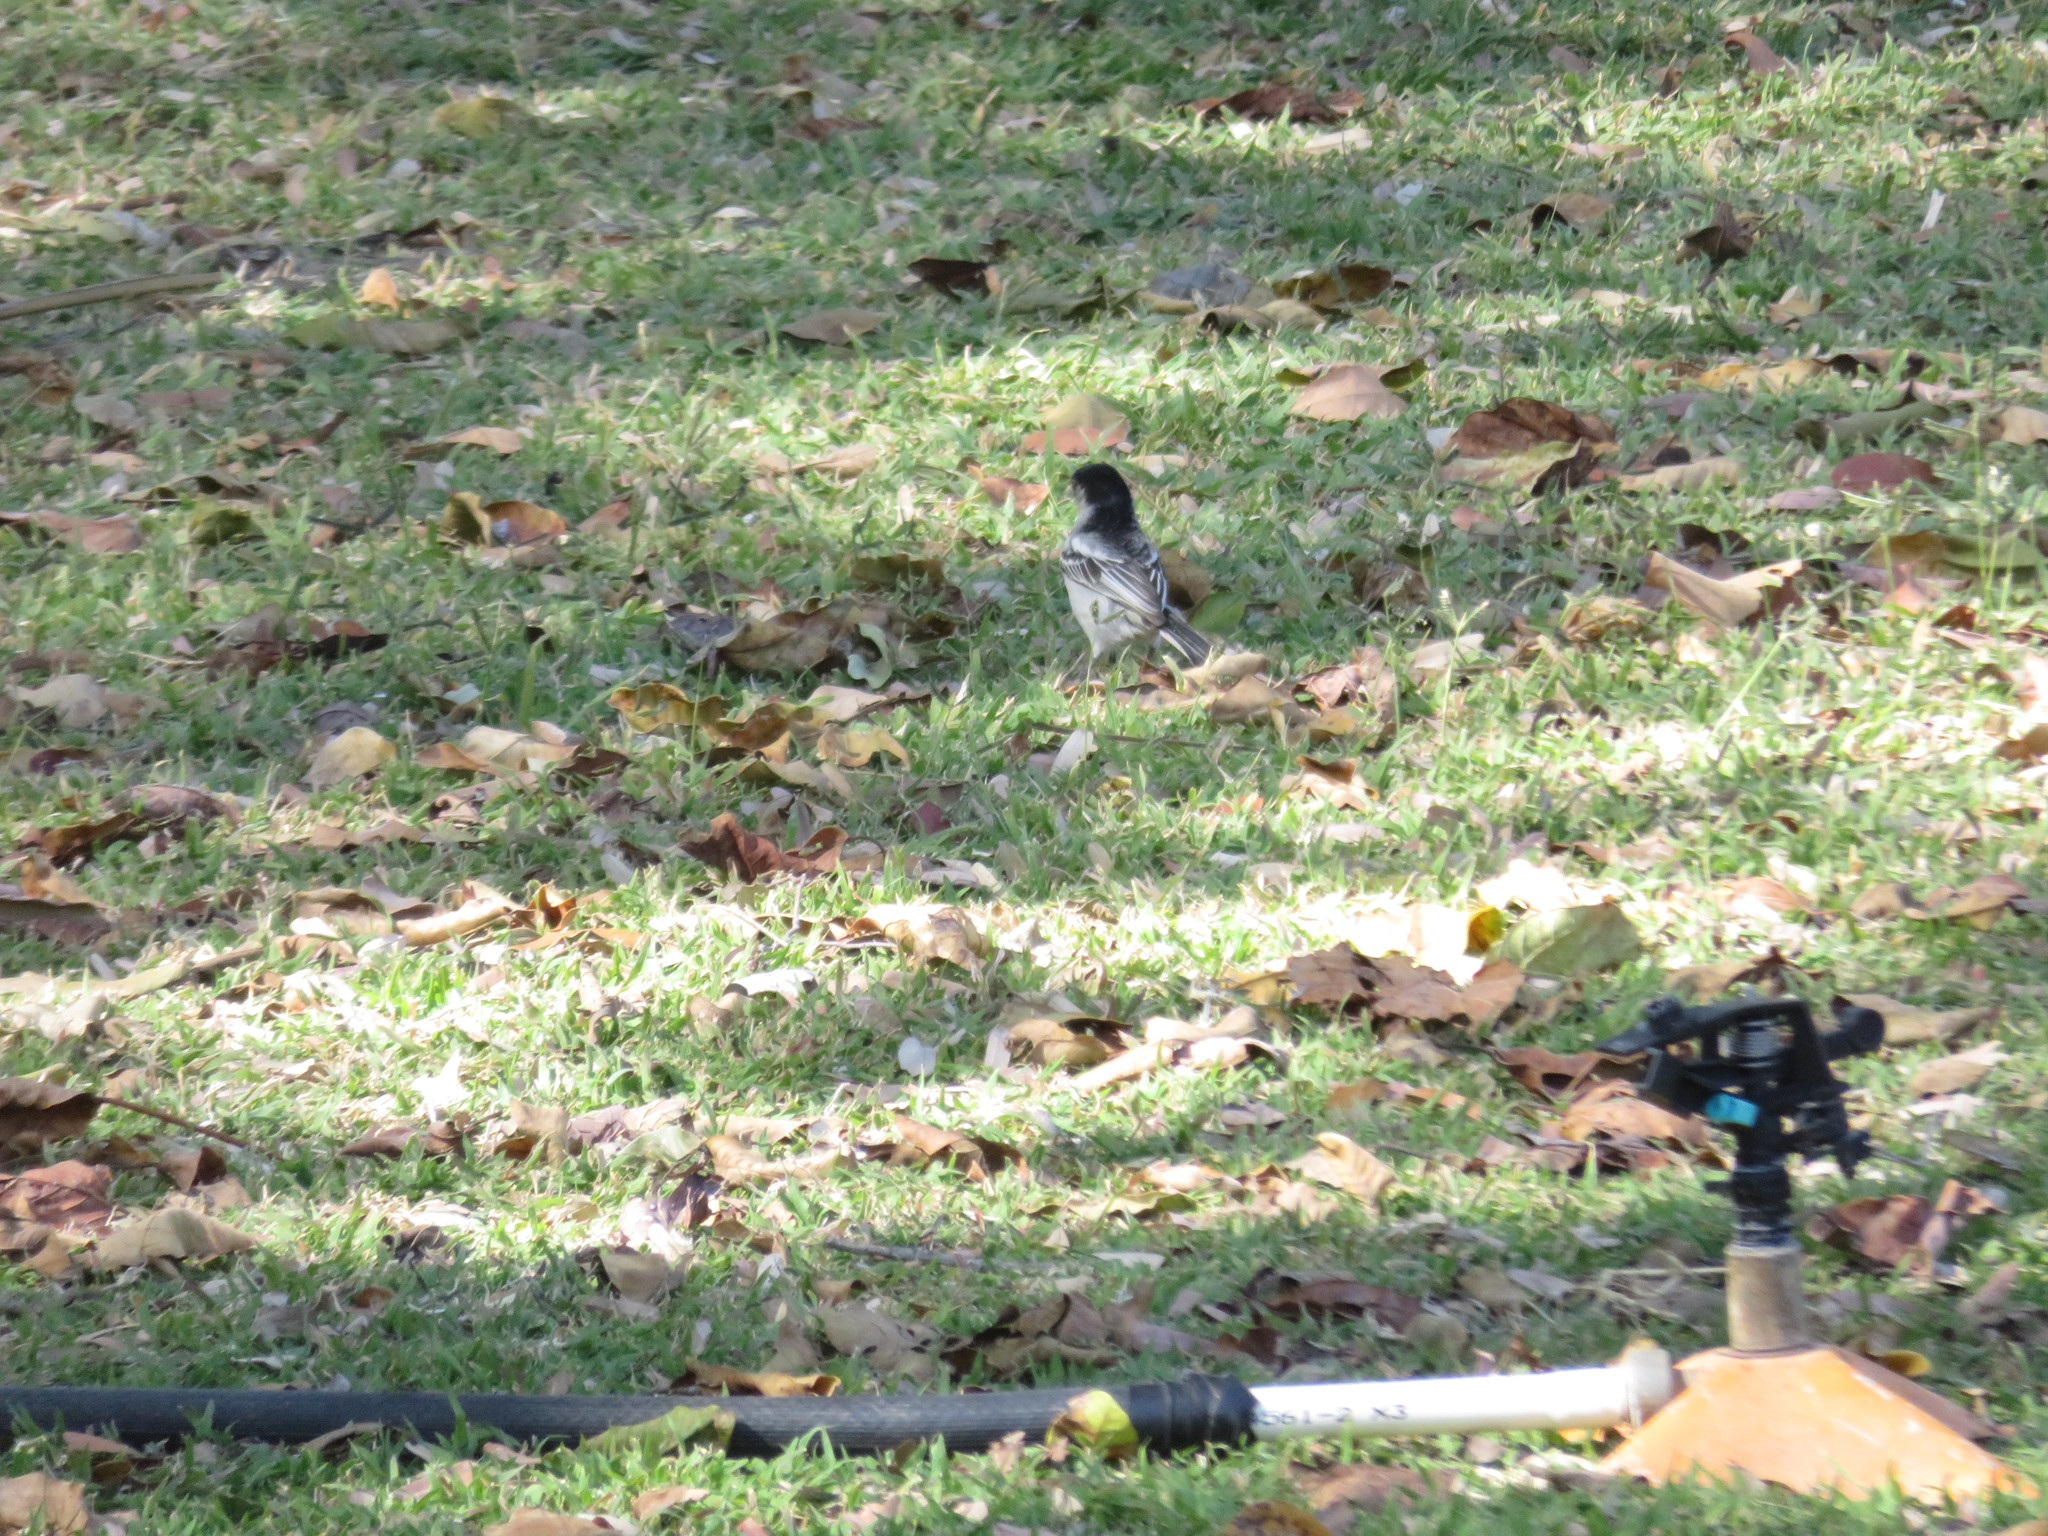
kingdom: Animalia
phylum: Chordata
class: Aves
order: Passeriformes
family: Malaconotidae
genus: Dryoscopus
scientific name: Dryoscopus cubla
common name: Black-backed puffback
